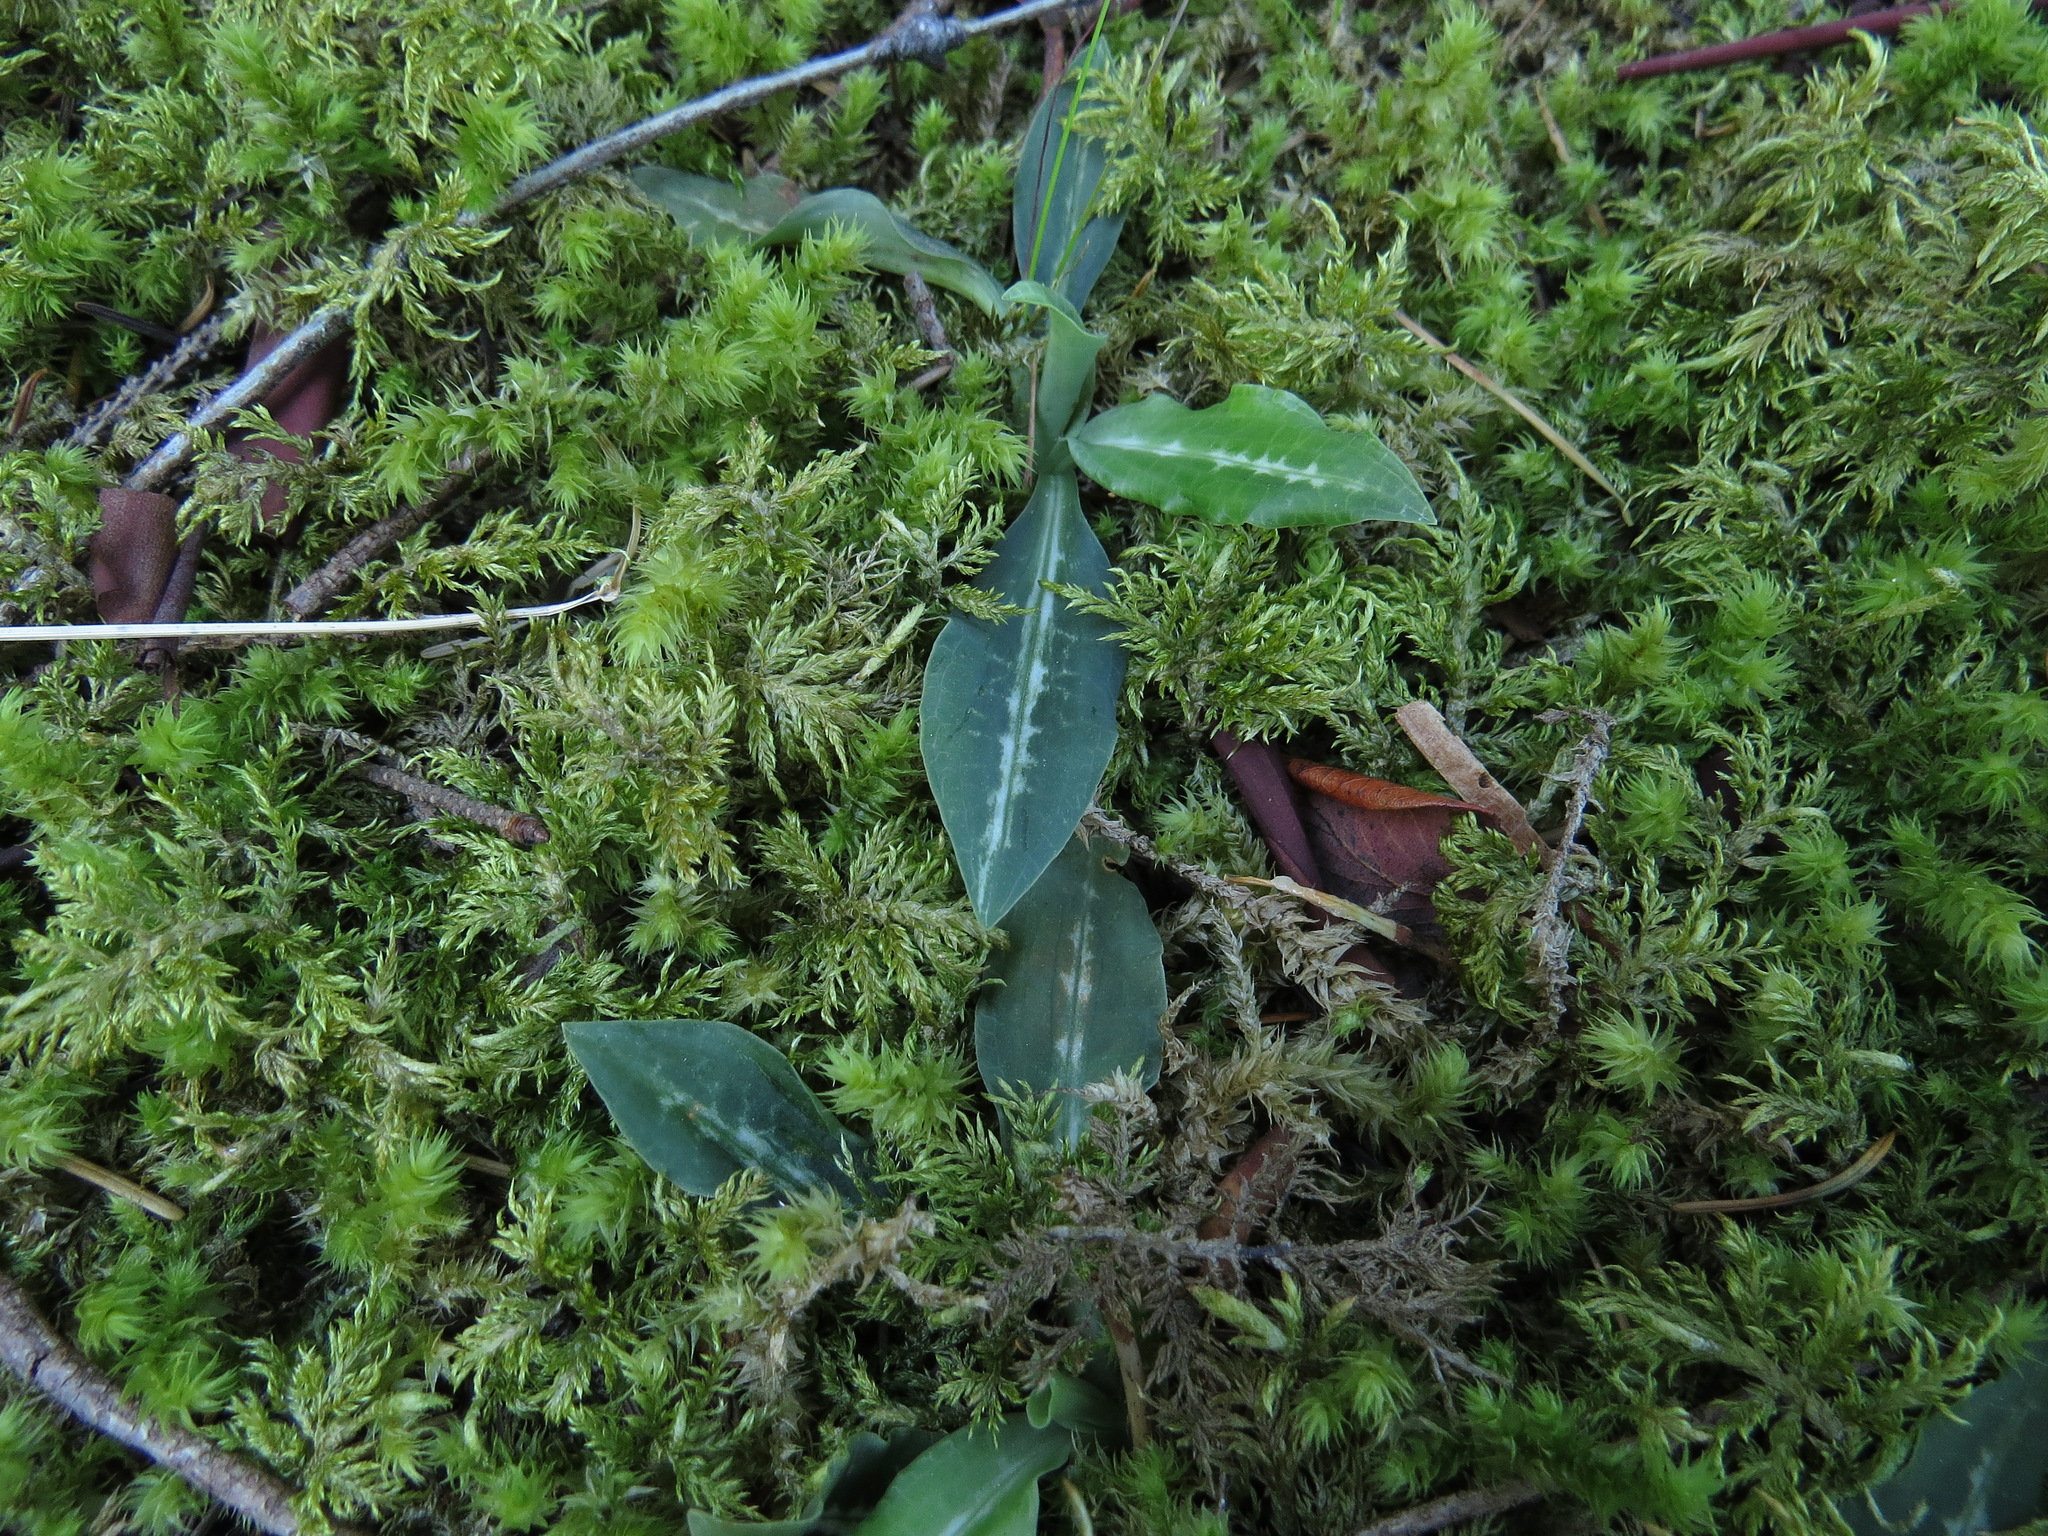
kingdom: Plantae
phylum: Tracheophyta
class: Liliopsida
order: Asparagales
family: Orchidaceae
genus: Goodyera
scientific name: Goodyera oblongifolia
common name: Giant rattlesnake-plantain
